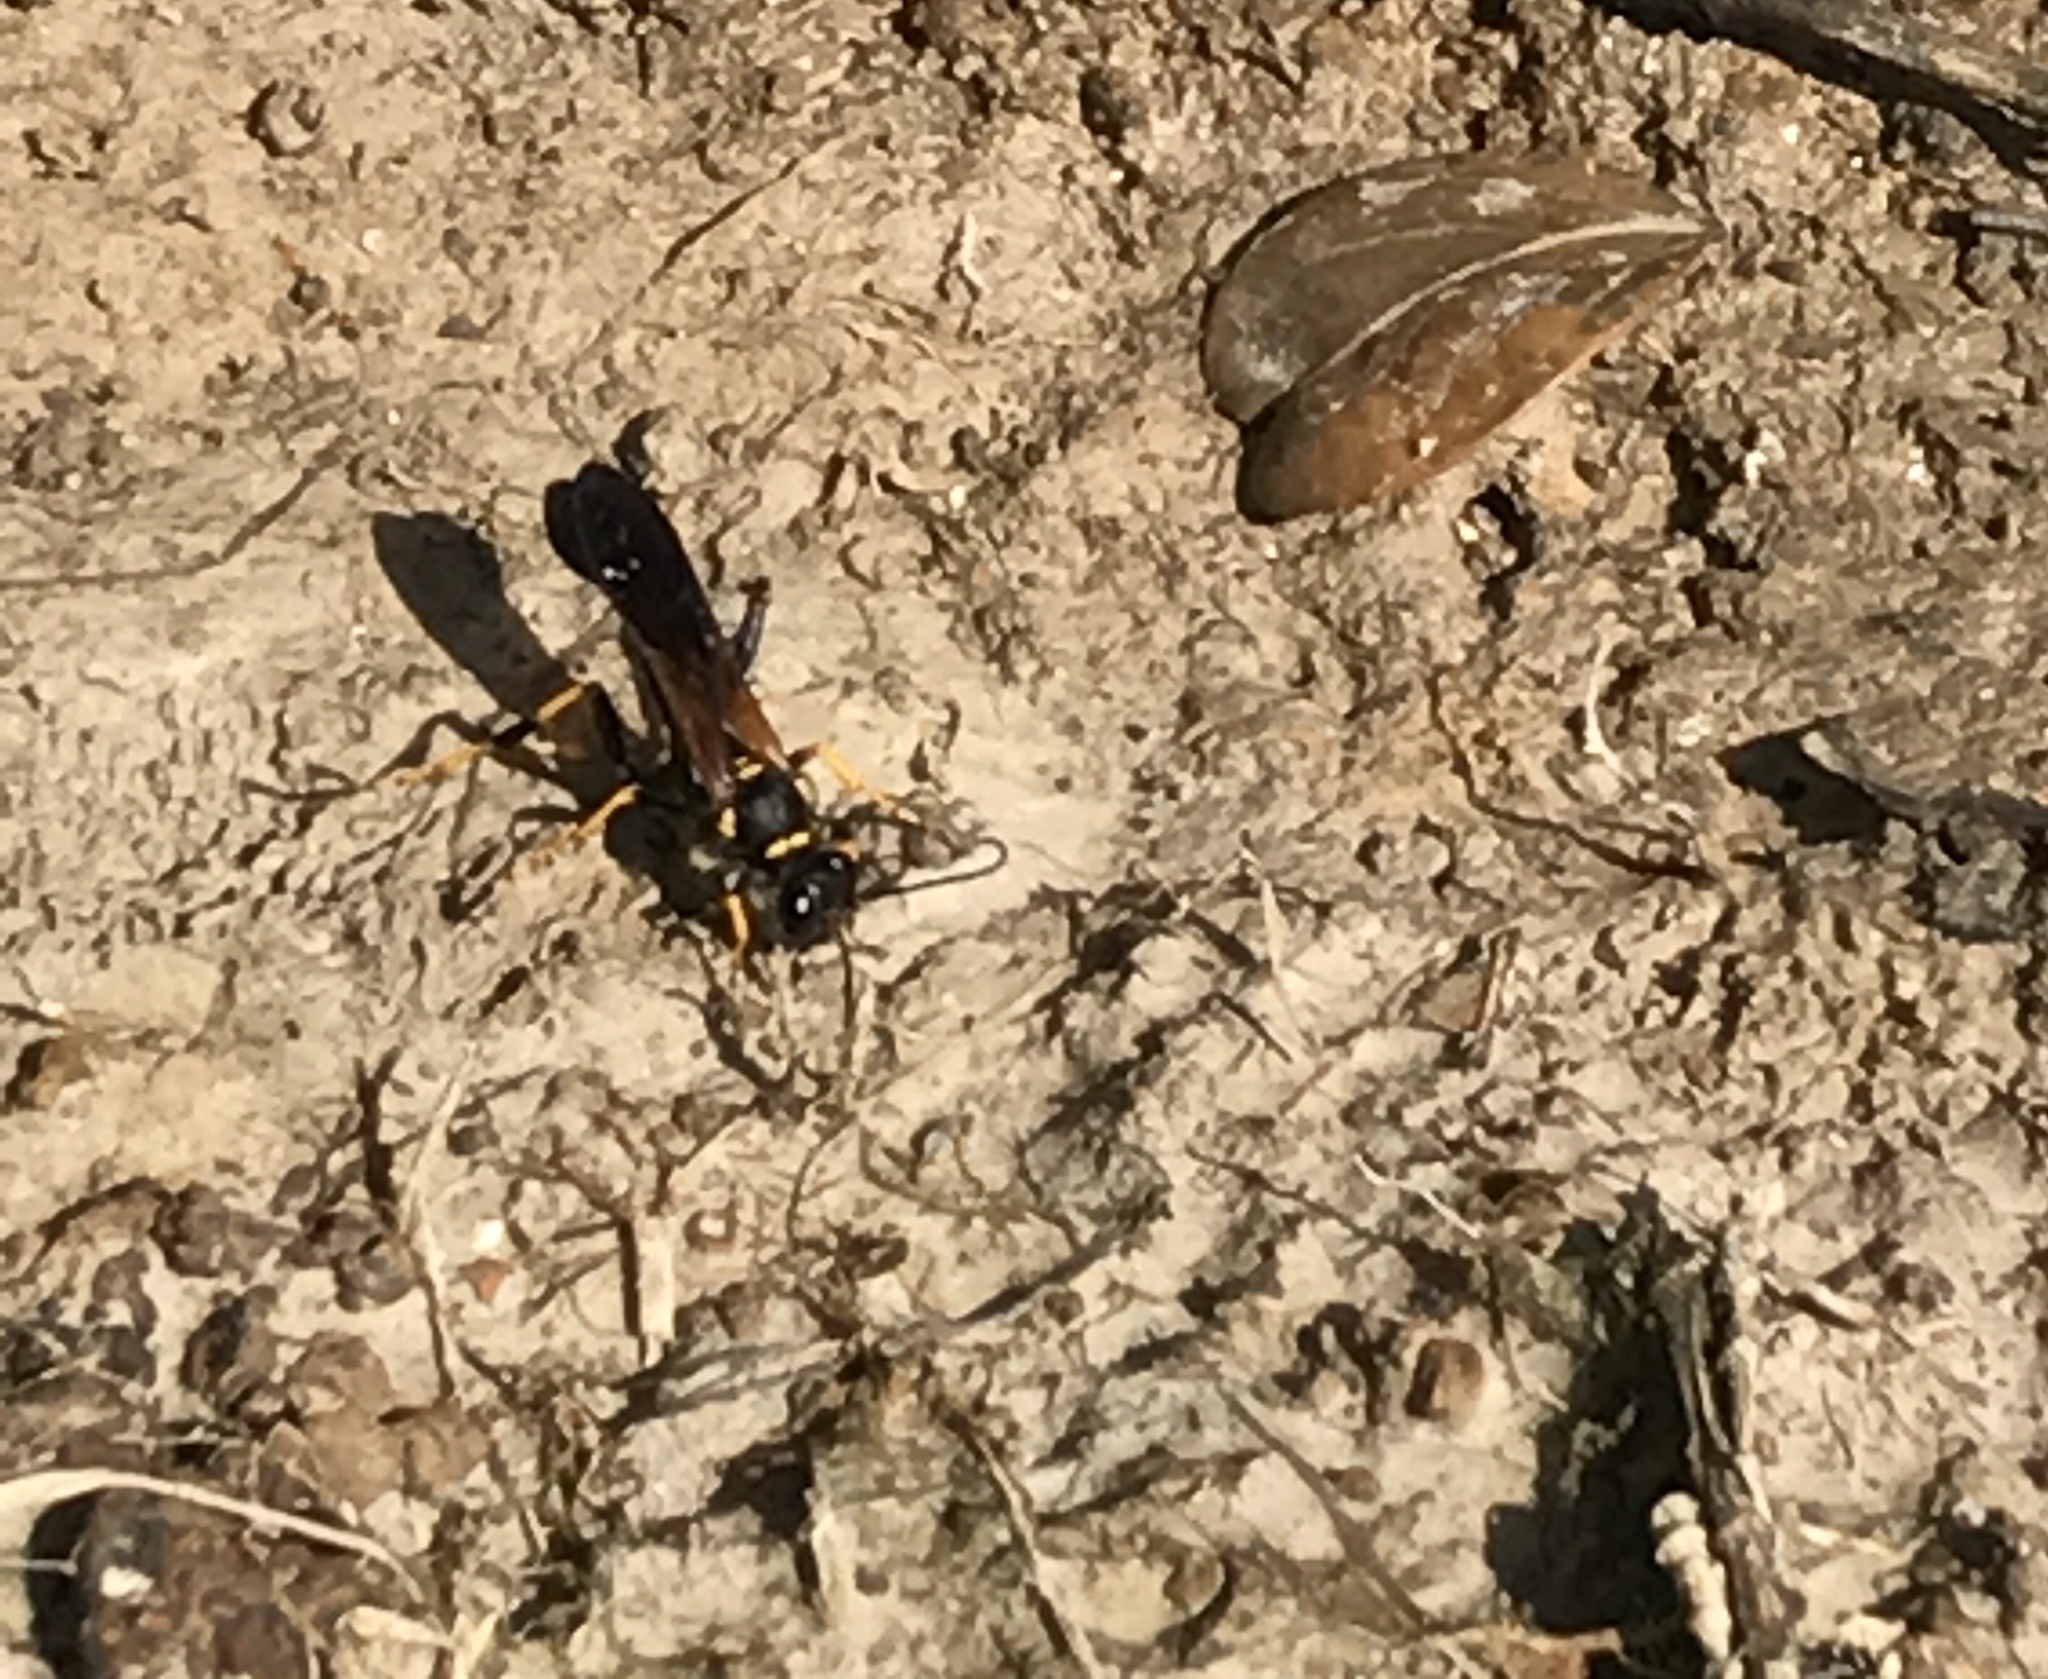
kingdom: Animalia
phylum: Arthropoda
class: Insecta
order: Hymenoptera
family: Sphecidae
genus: Sceliphron
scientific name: Sceliphron caementarium
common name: Mud dauber
